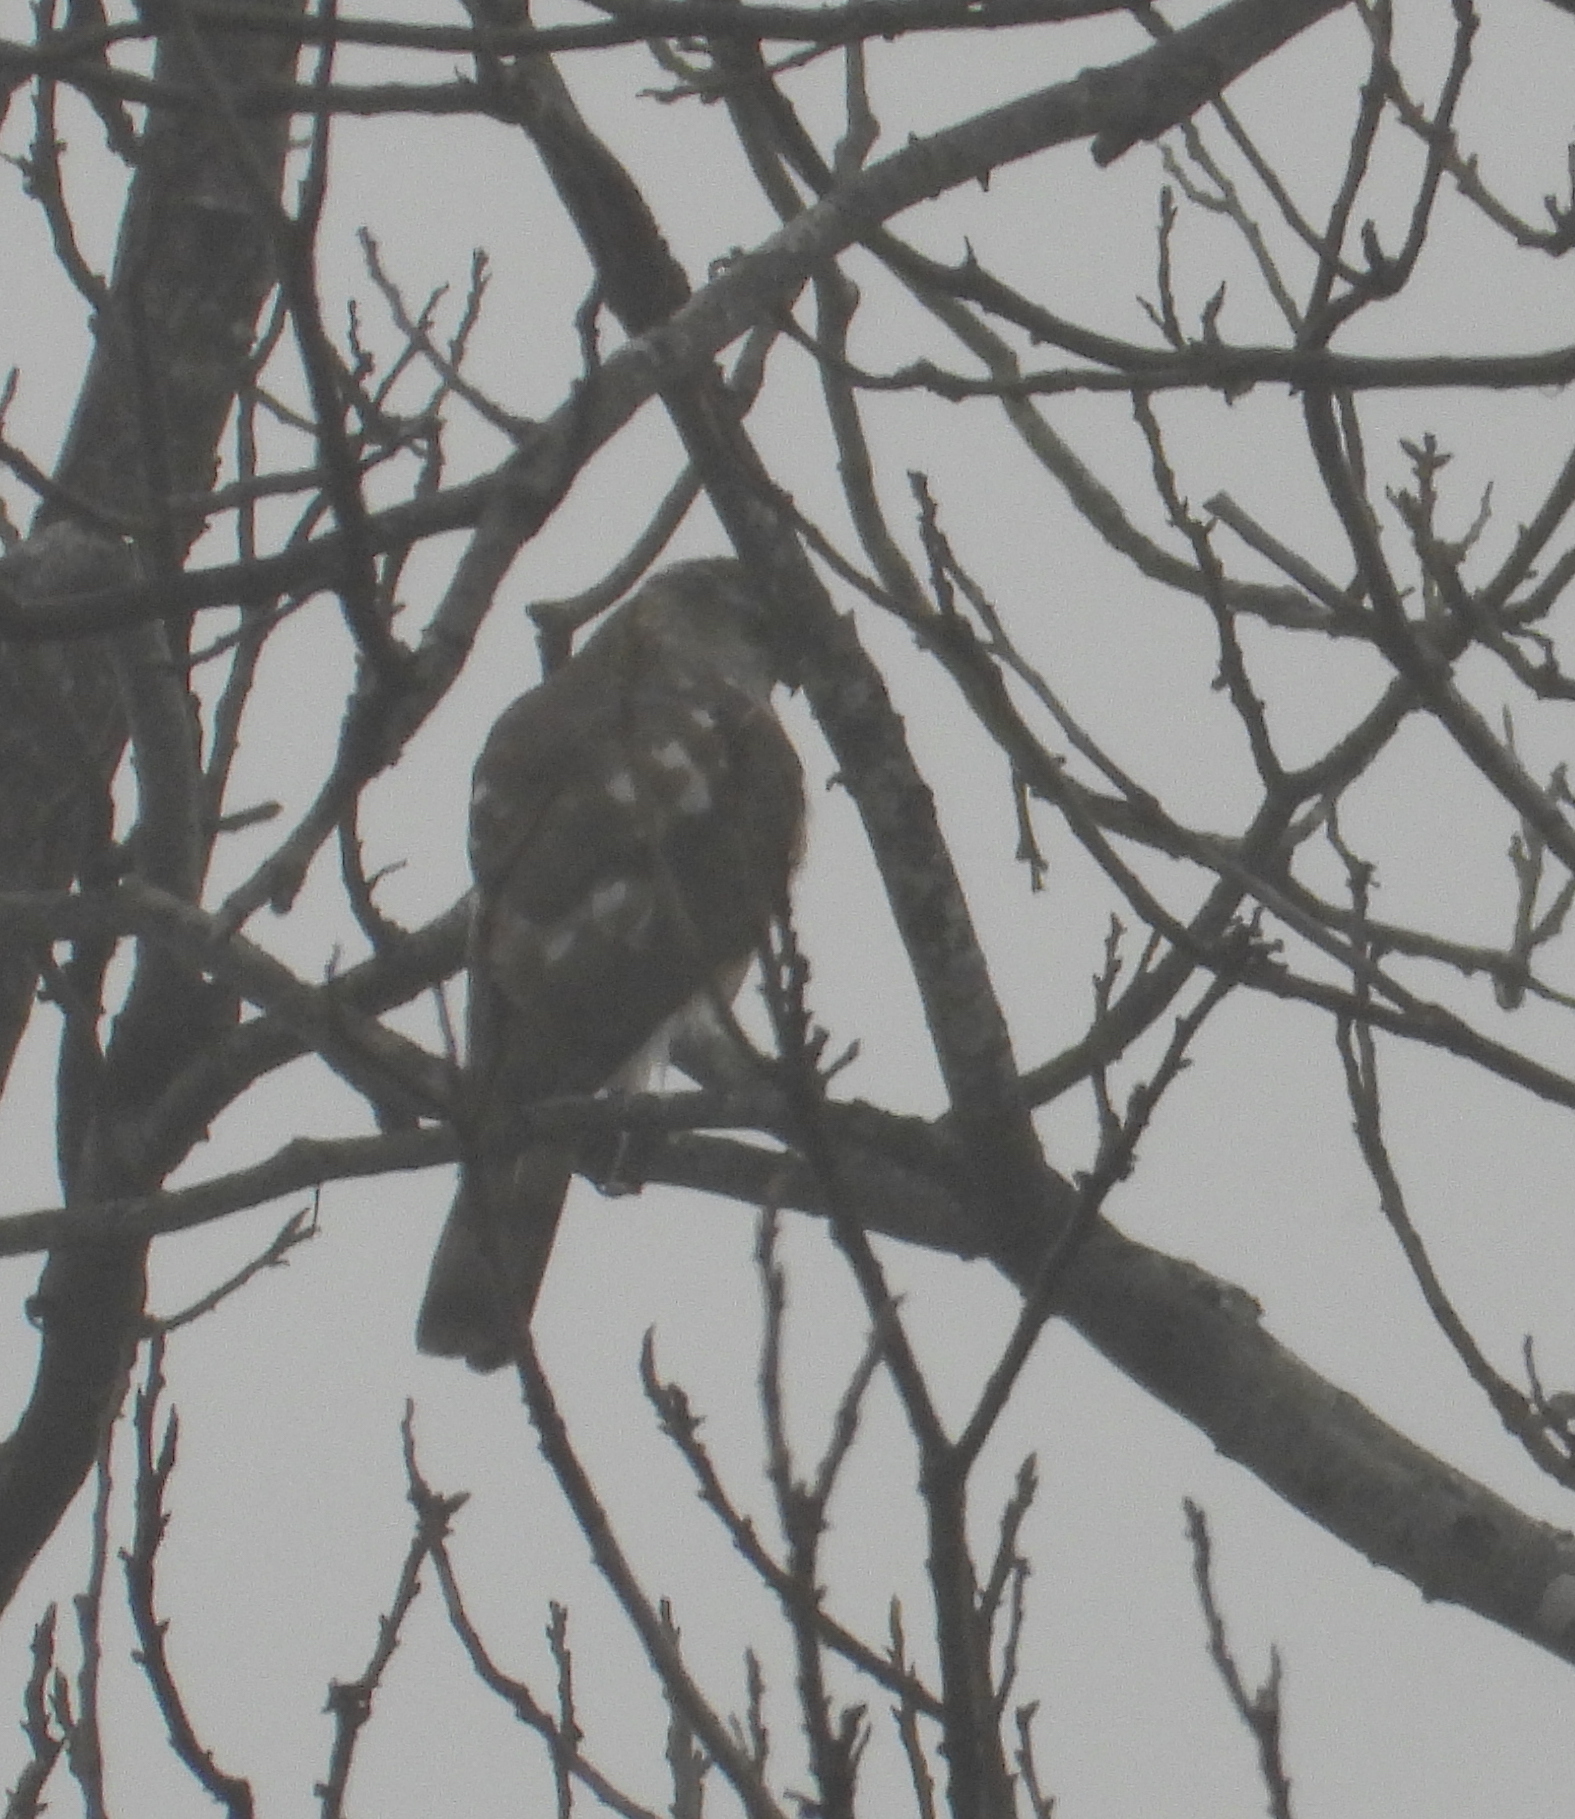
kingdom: Animalia
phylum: Chordata
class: Aves
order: Accipitriformes
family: Accipitridae
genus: Accipiter
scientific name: Accipiter striatus
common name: Sharp-shinned hawk
